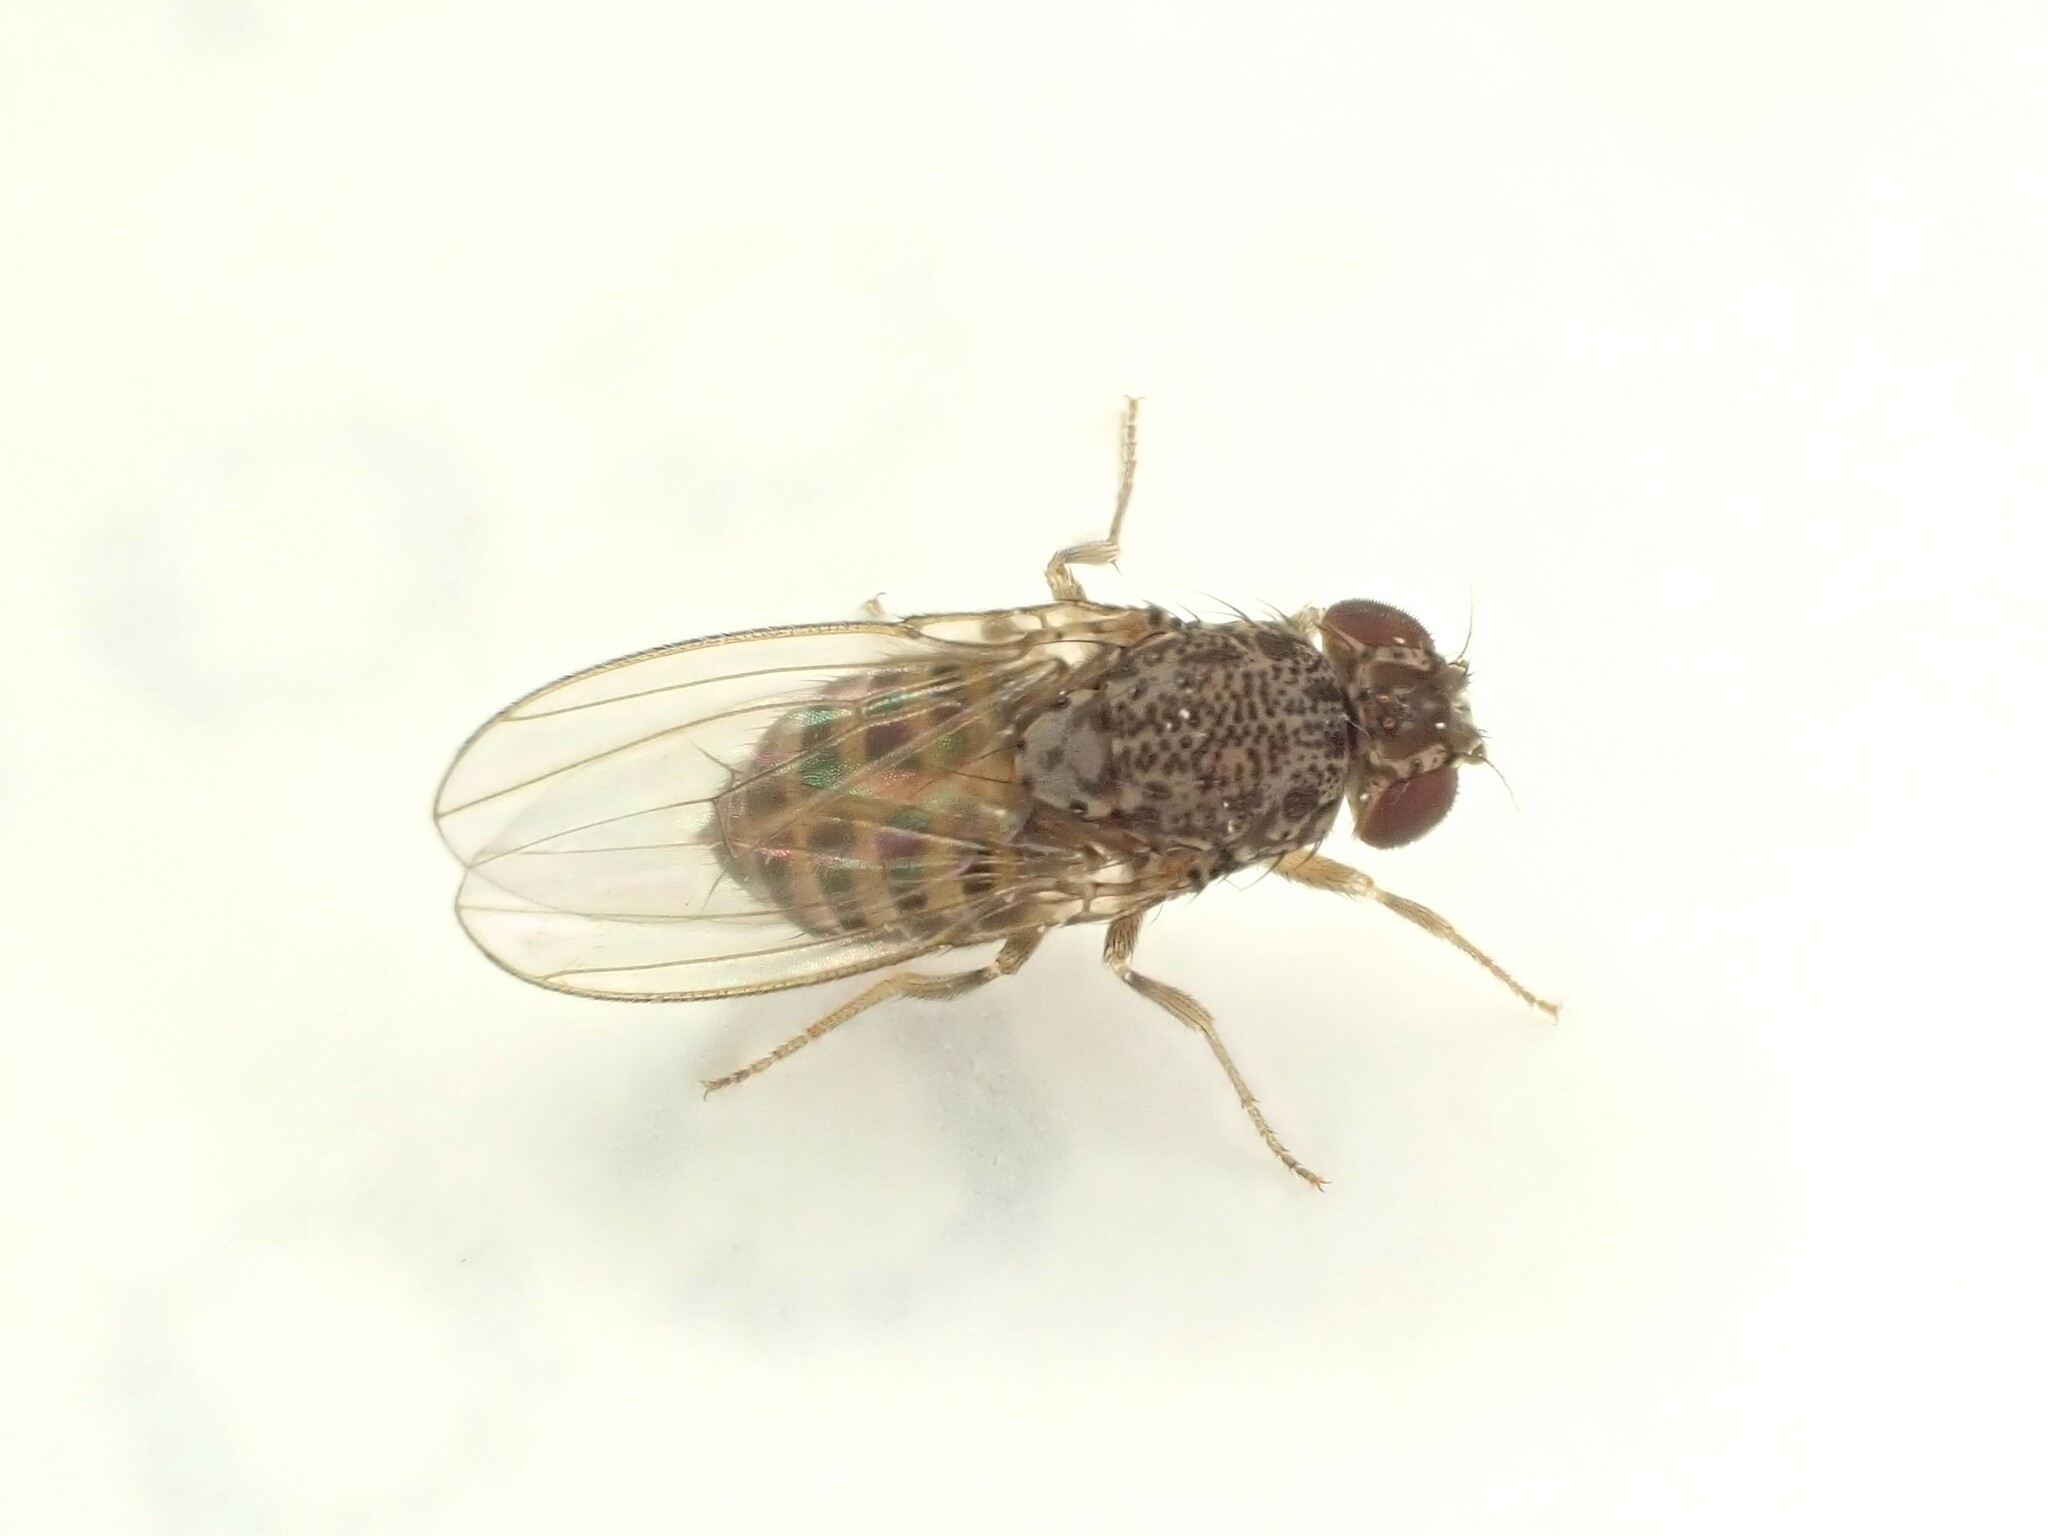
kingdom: Animalia
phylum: Arthropoda
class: Insecta
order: Diptera
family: Drosophilidae
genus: Drosophila
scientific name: Drosophila hydei
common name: Pomace fly
